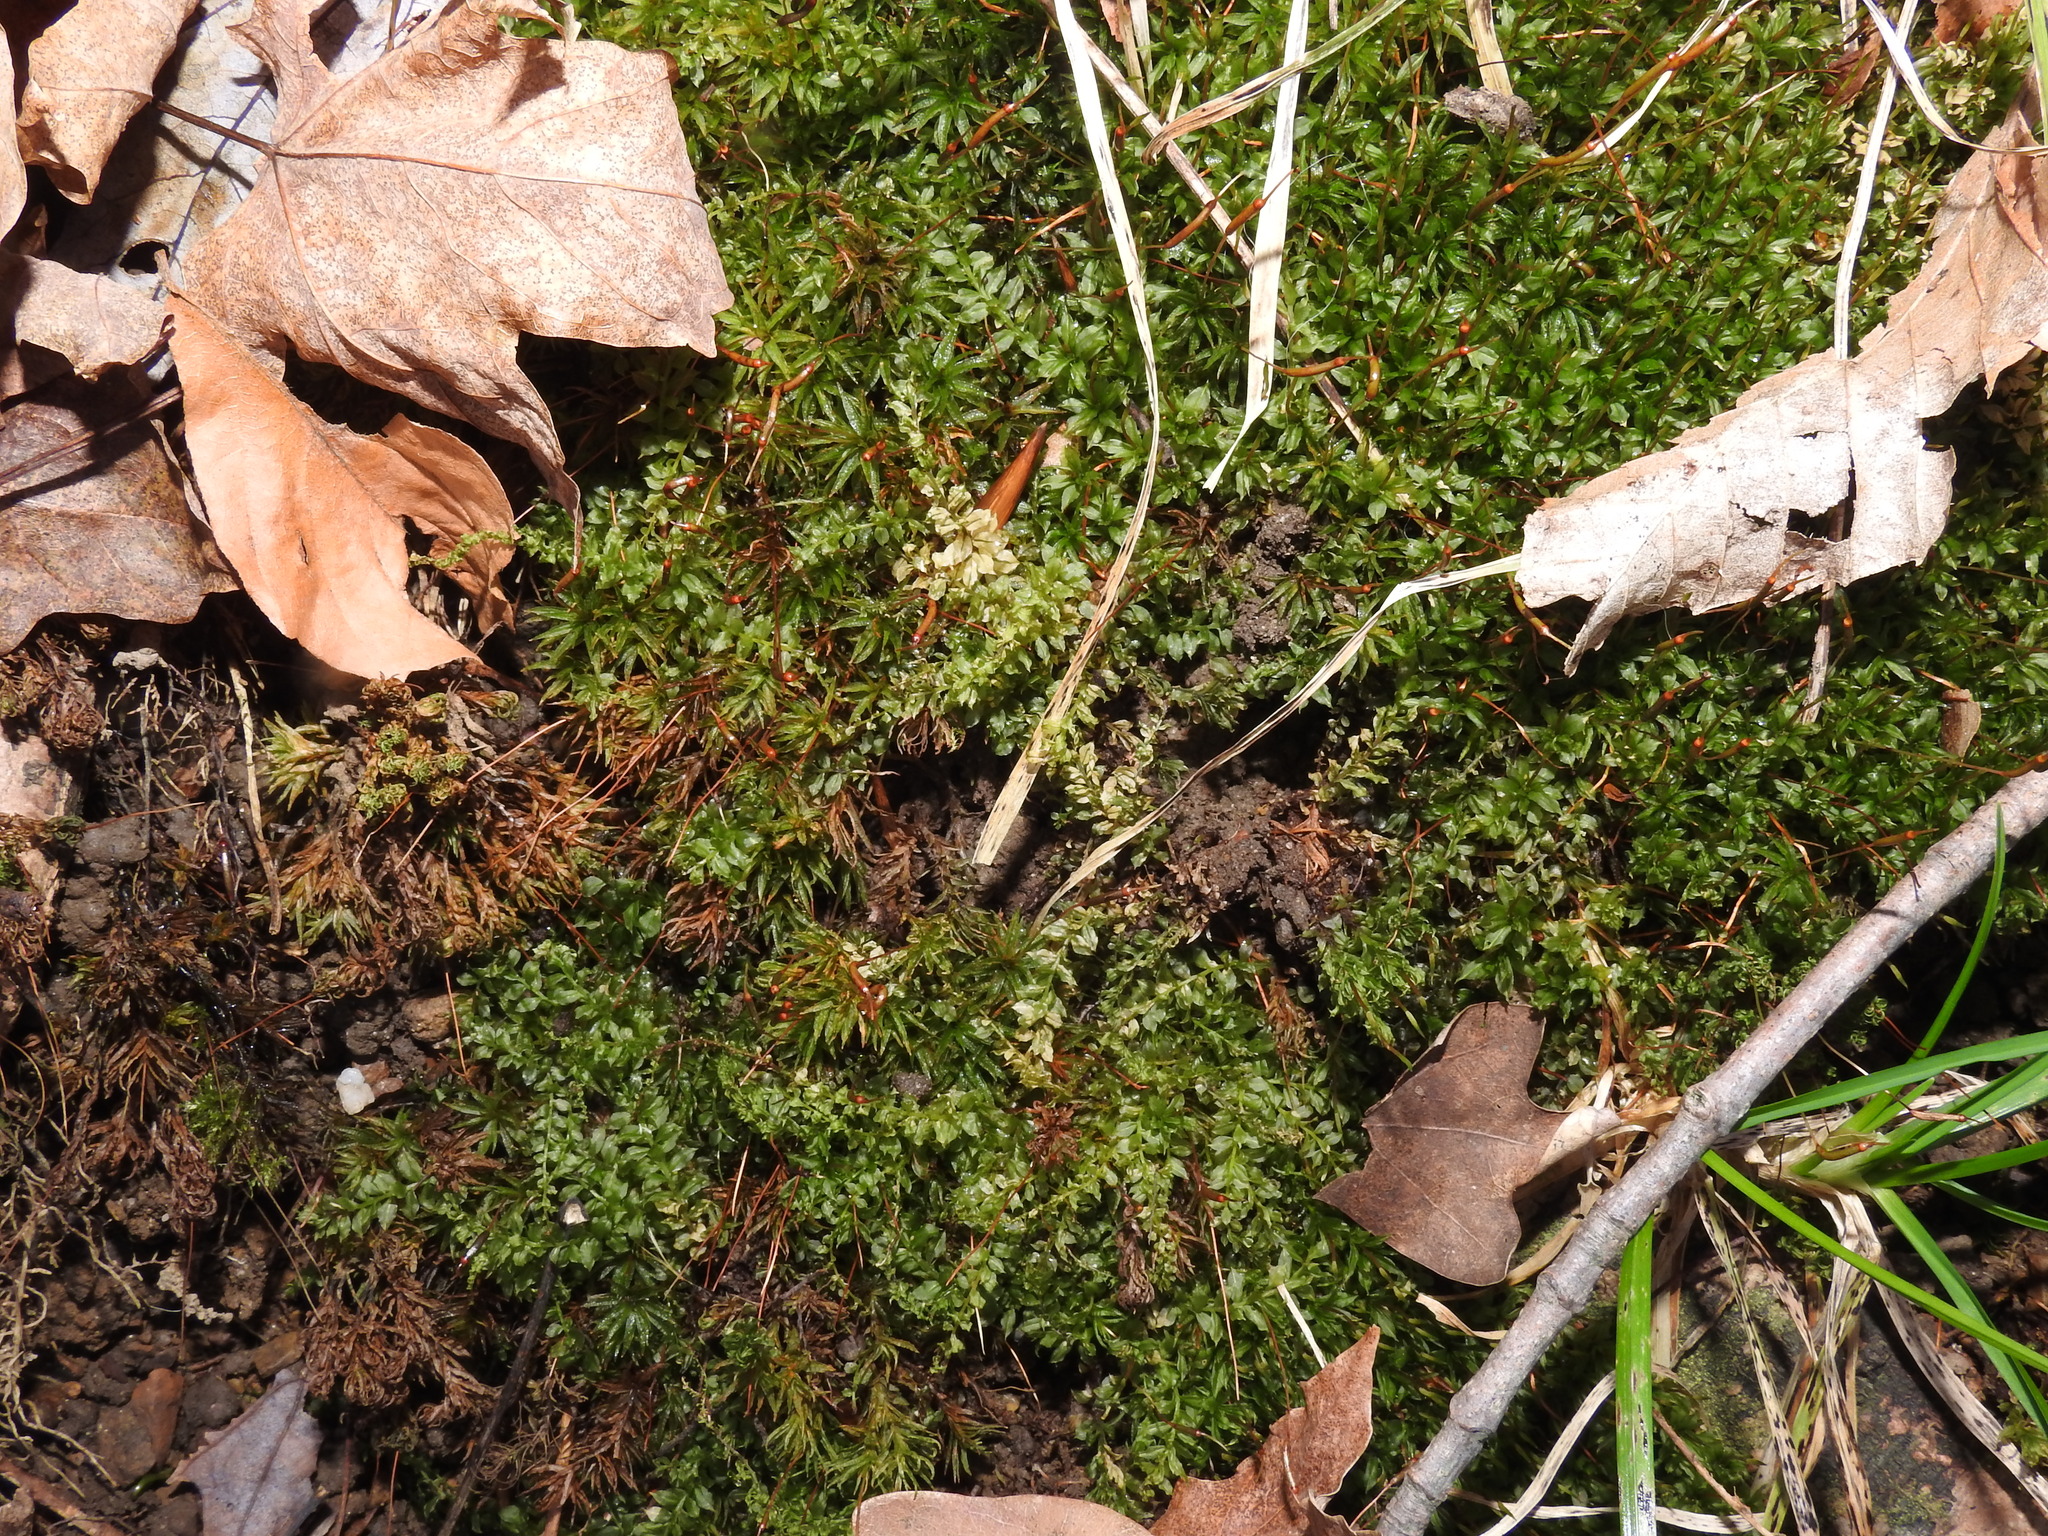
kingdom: Plantae
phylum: Bryophyta
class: Bryopsida
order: Bryales
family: Mniaceae
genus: Plagiomnium
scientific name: Plagiomnium cuspidatum
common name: Woodsy leafy moss
